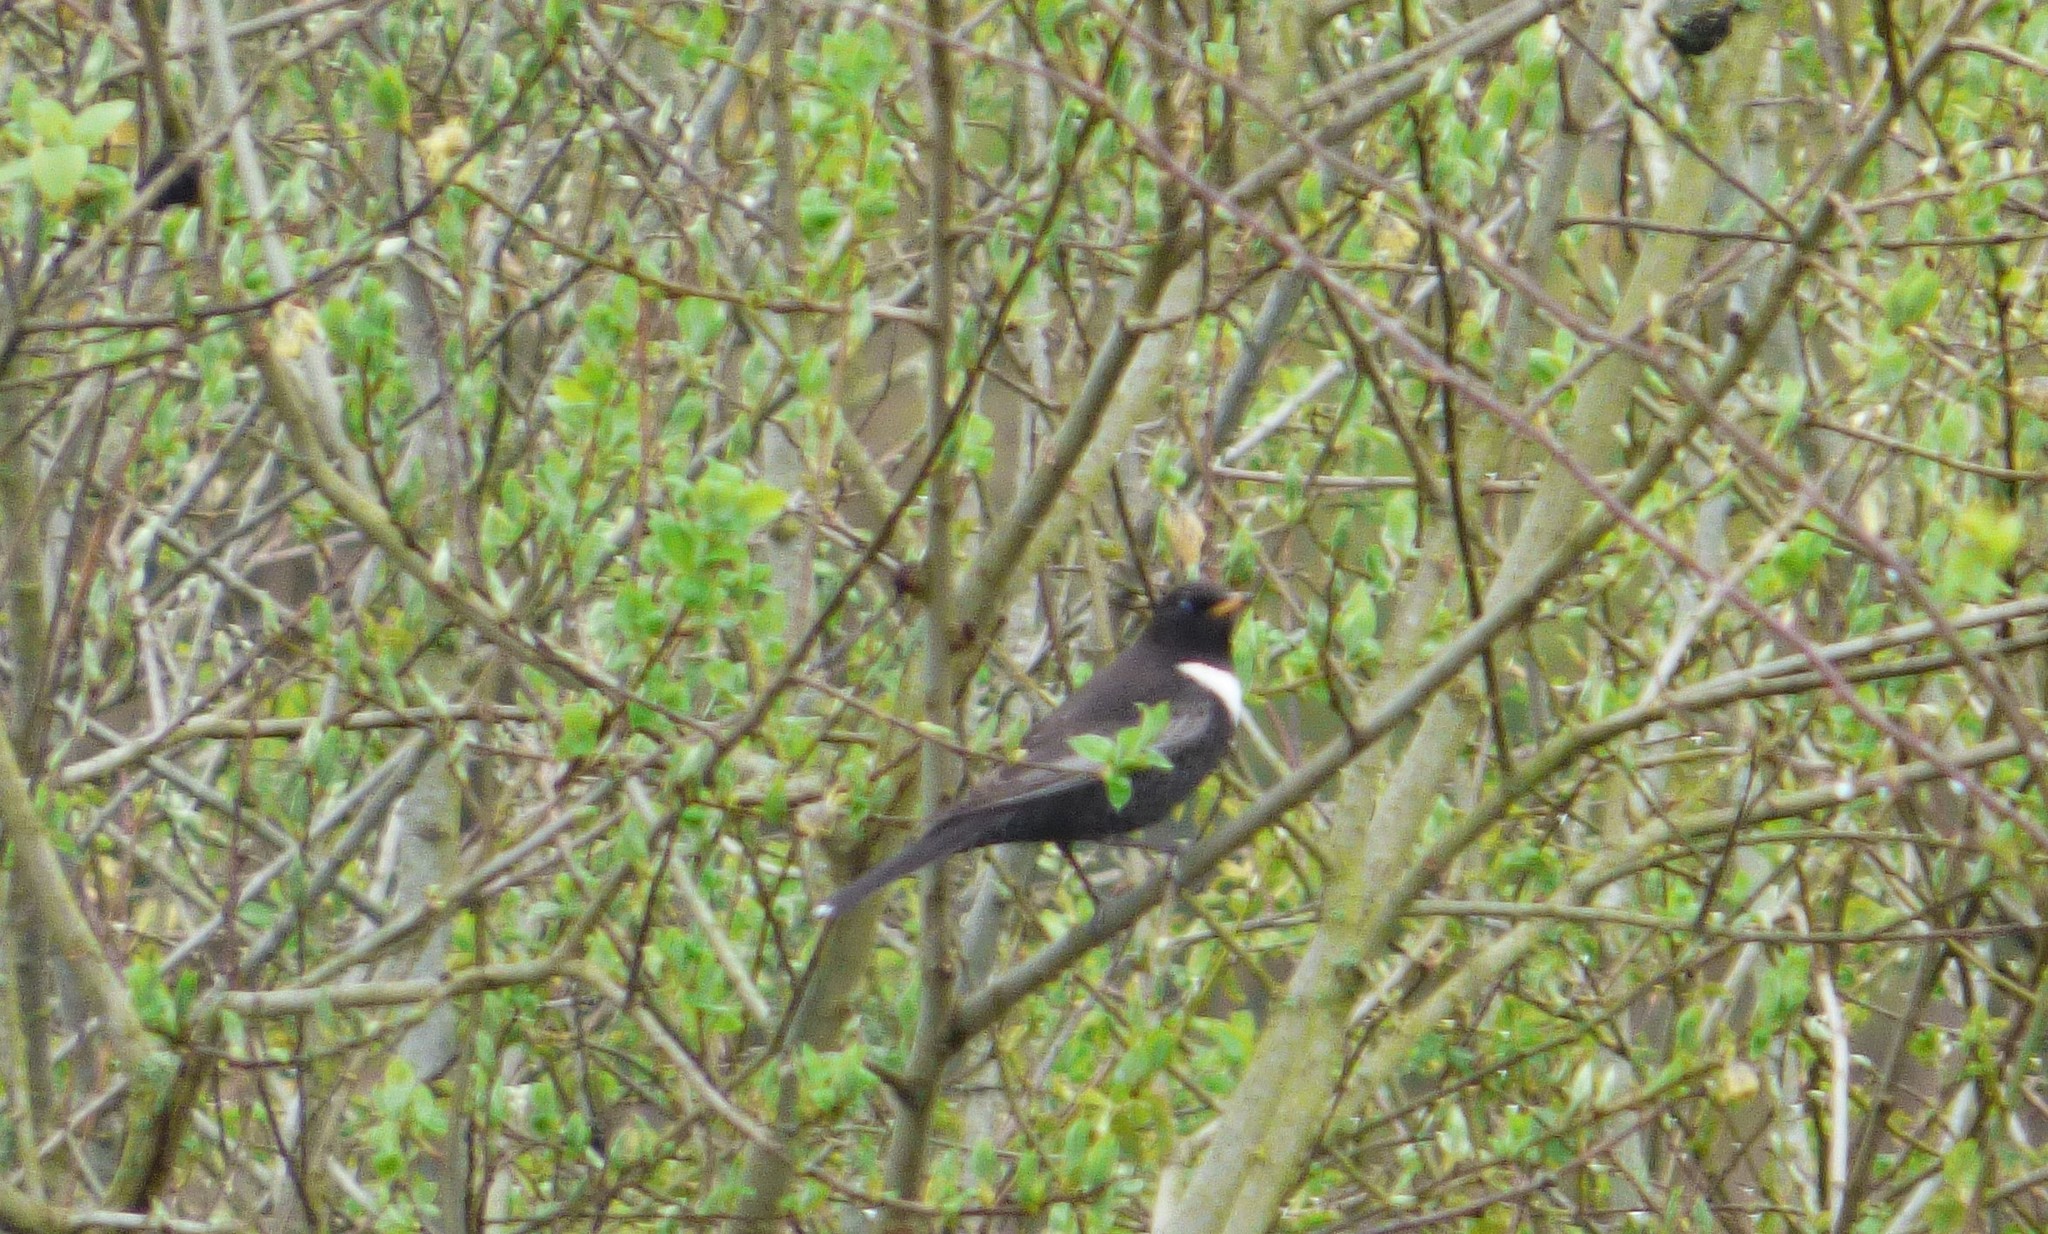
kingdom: Animalia
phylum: Chordata
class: Aves
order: Passeriformes
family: Turdidae
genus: Turdus
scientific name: Turdus torquatus
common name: Ring ouzel
